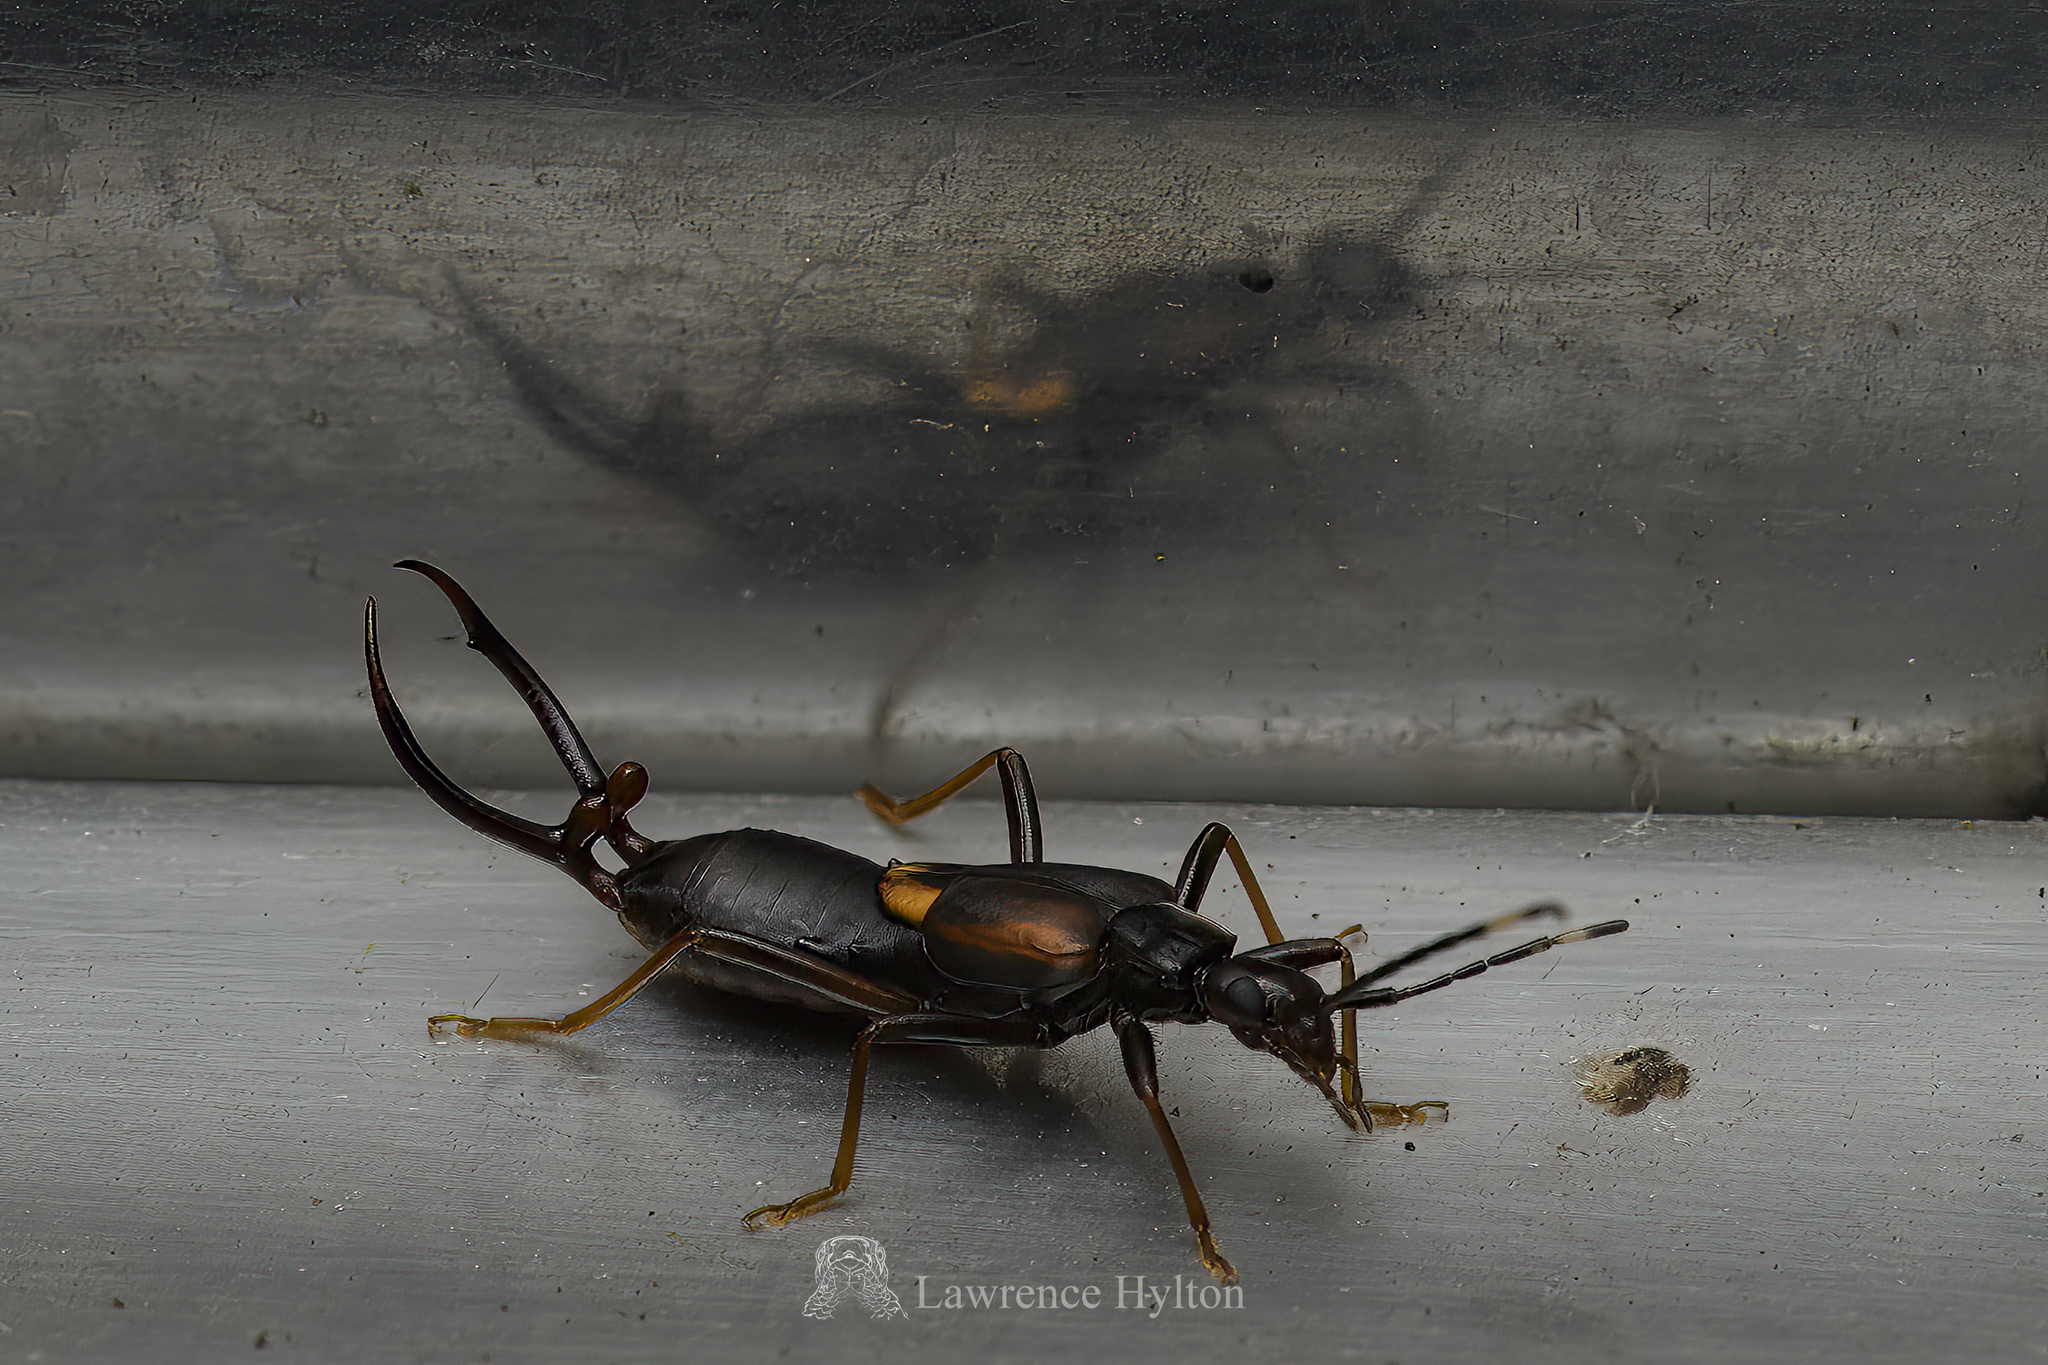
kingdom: Animalia
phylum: Arthropoda
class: Insecta
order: Dermaptera
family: Forficulidae
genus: Eparchus
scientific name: Eparchus insignis
